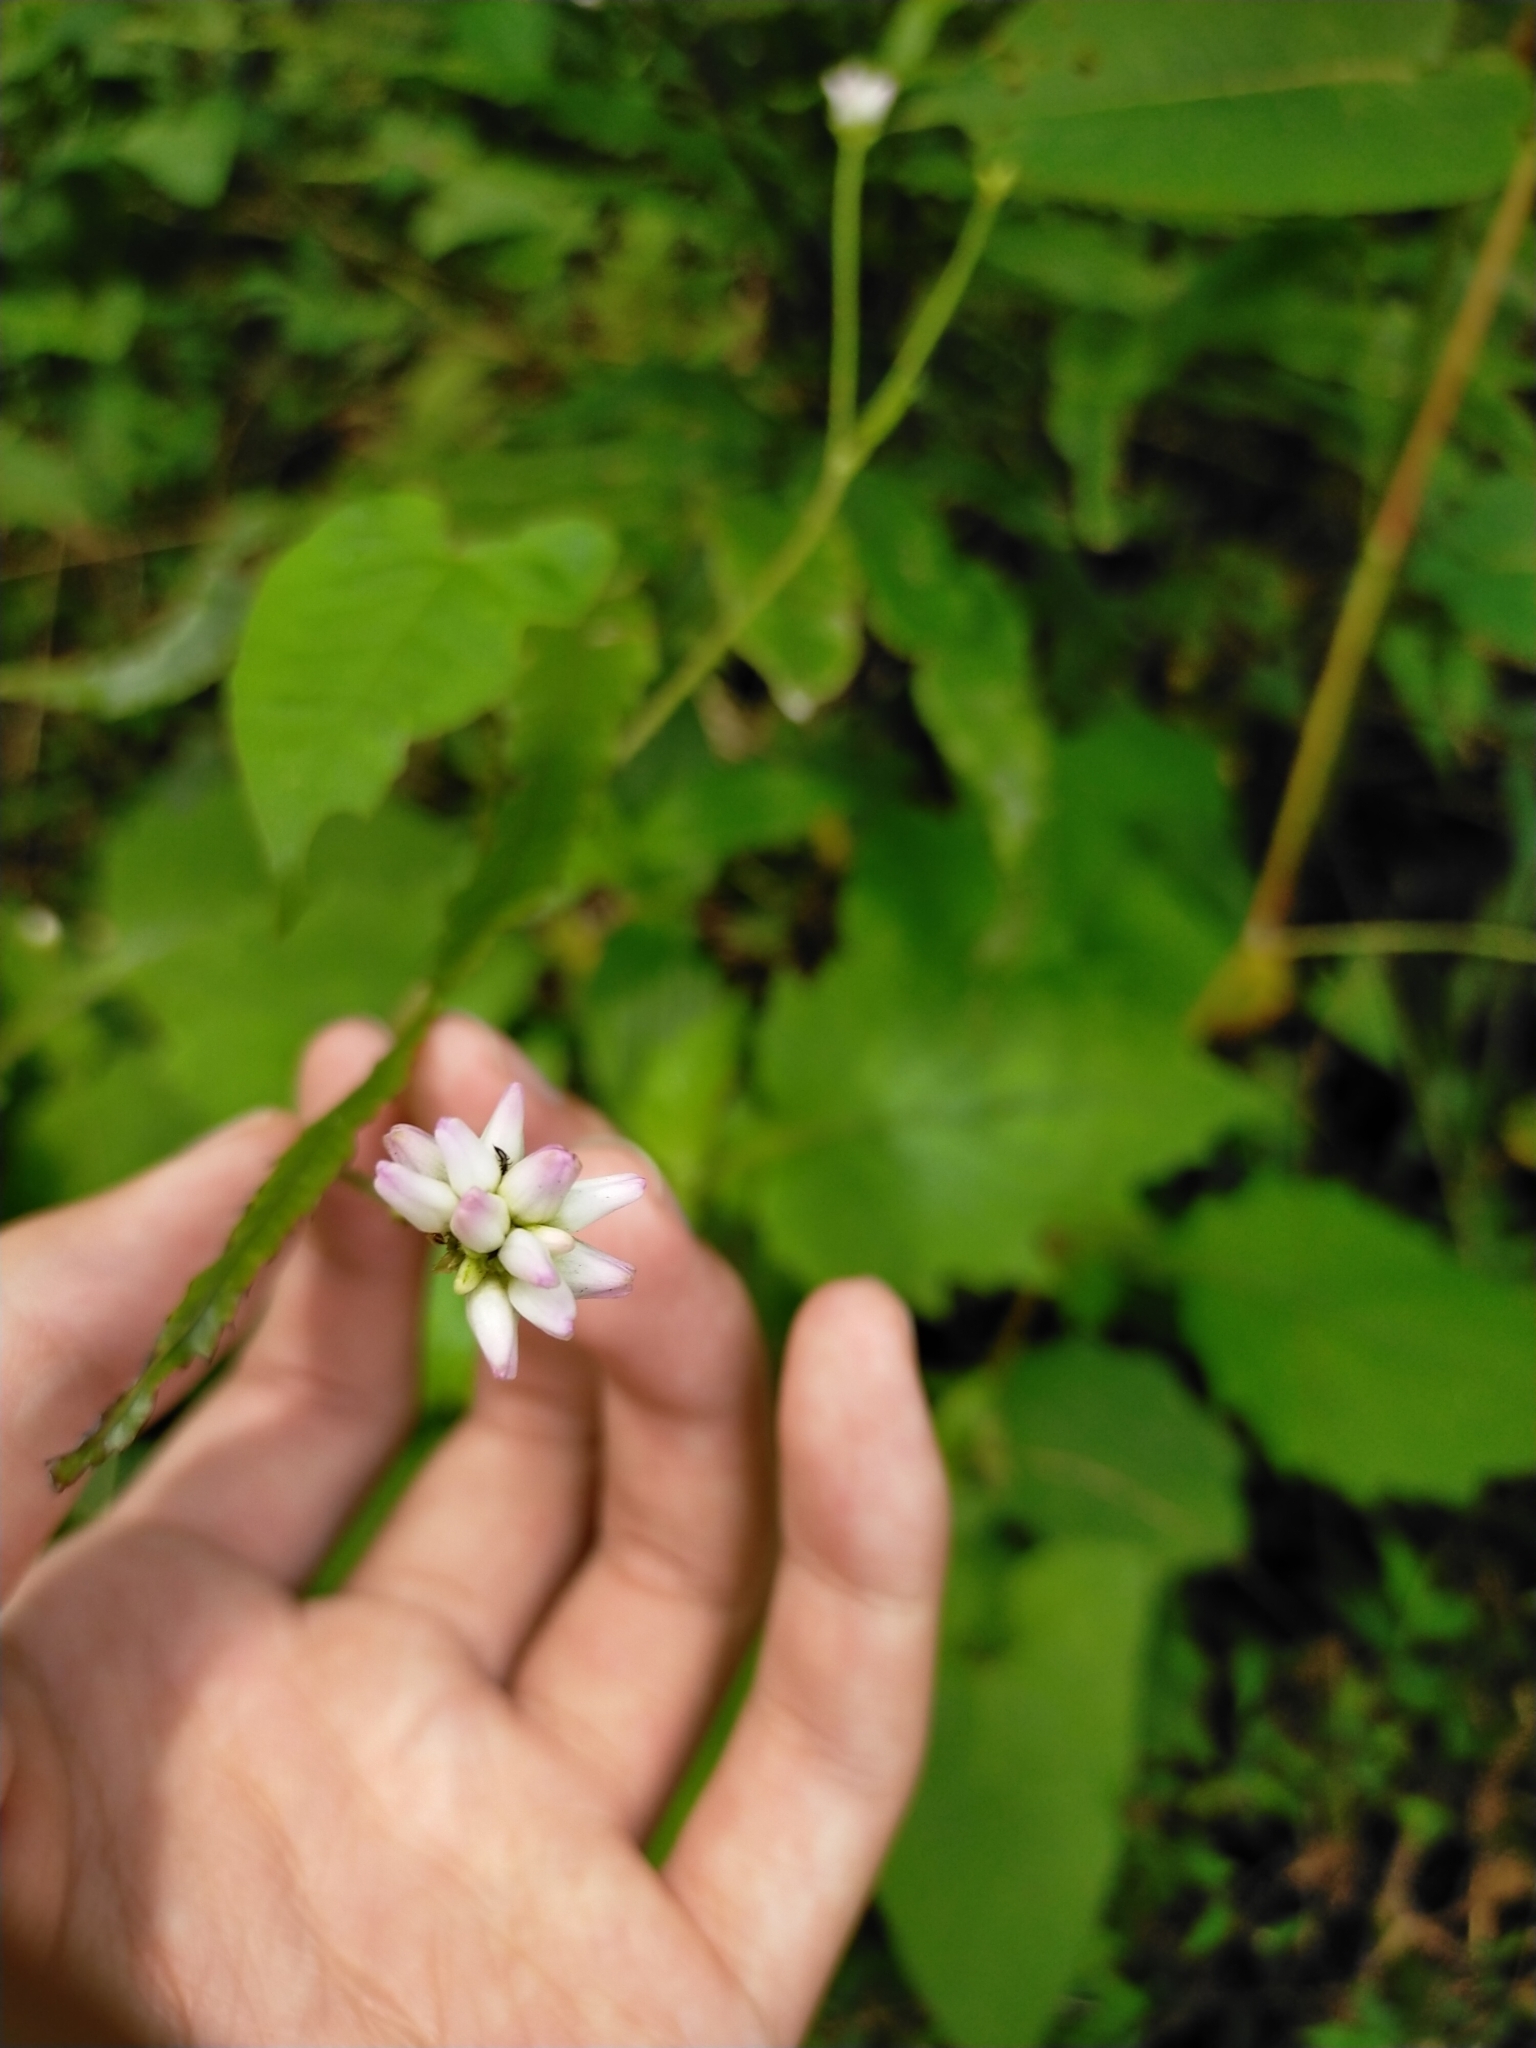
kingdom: Plantae
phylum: Tracheophyta
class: Magnoliopsida
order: Caryophyllales
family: Polygonaceae
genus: Persicaria
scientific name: Persicaria senticosa
